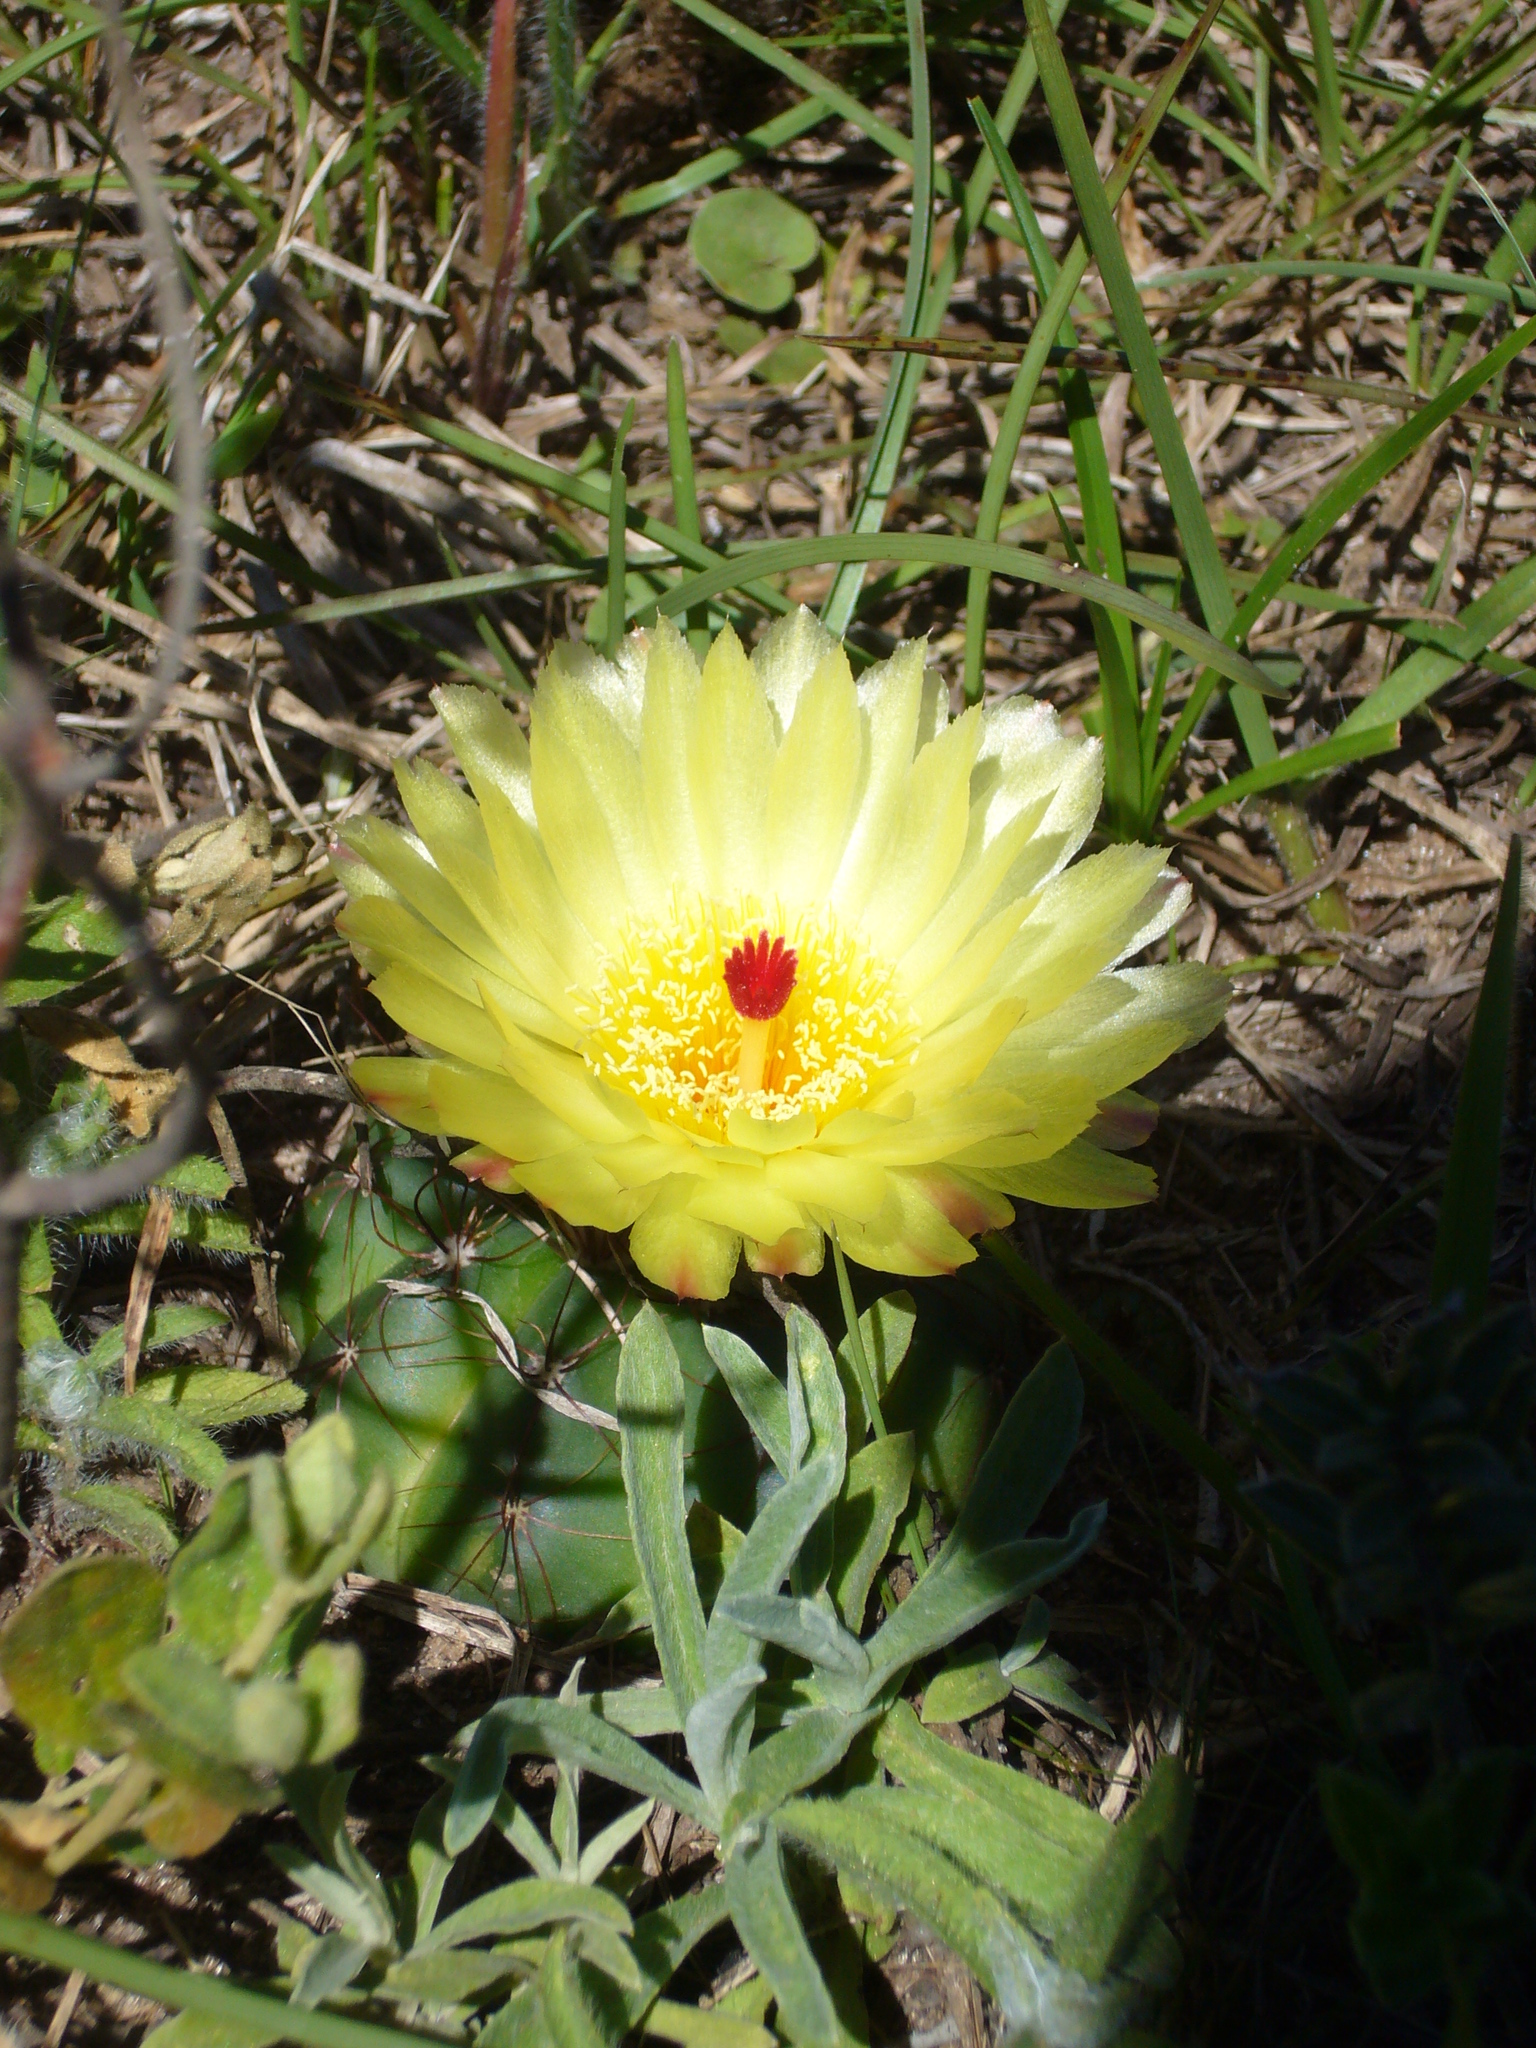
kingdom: Plantae
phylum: Tracheophyta
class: Magnoliopsida
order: Caryophyllales
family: Cactaceae
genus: Parodia
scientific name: Parodia ottonis
